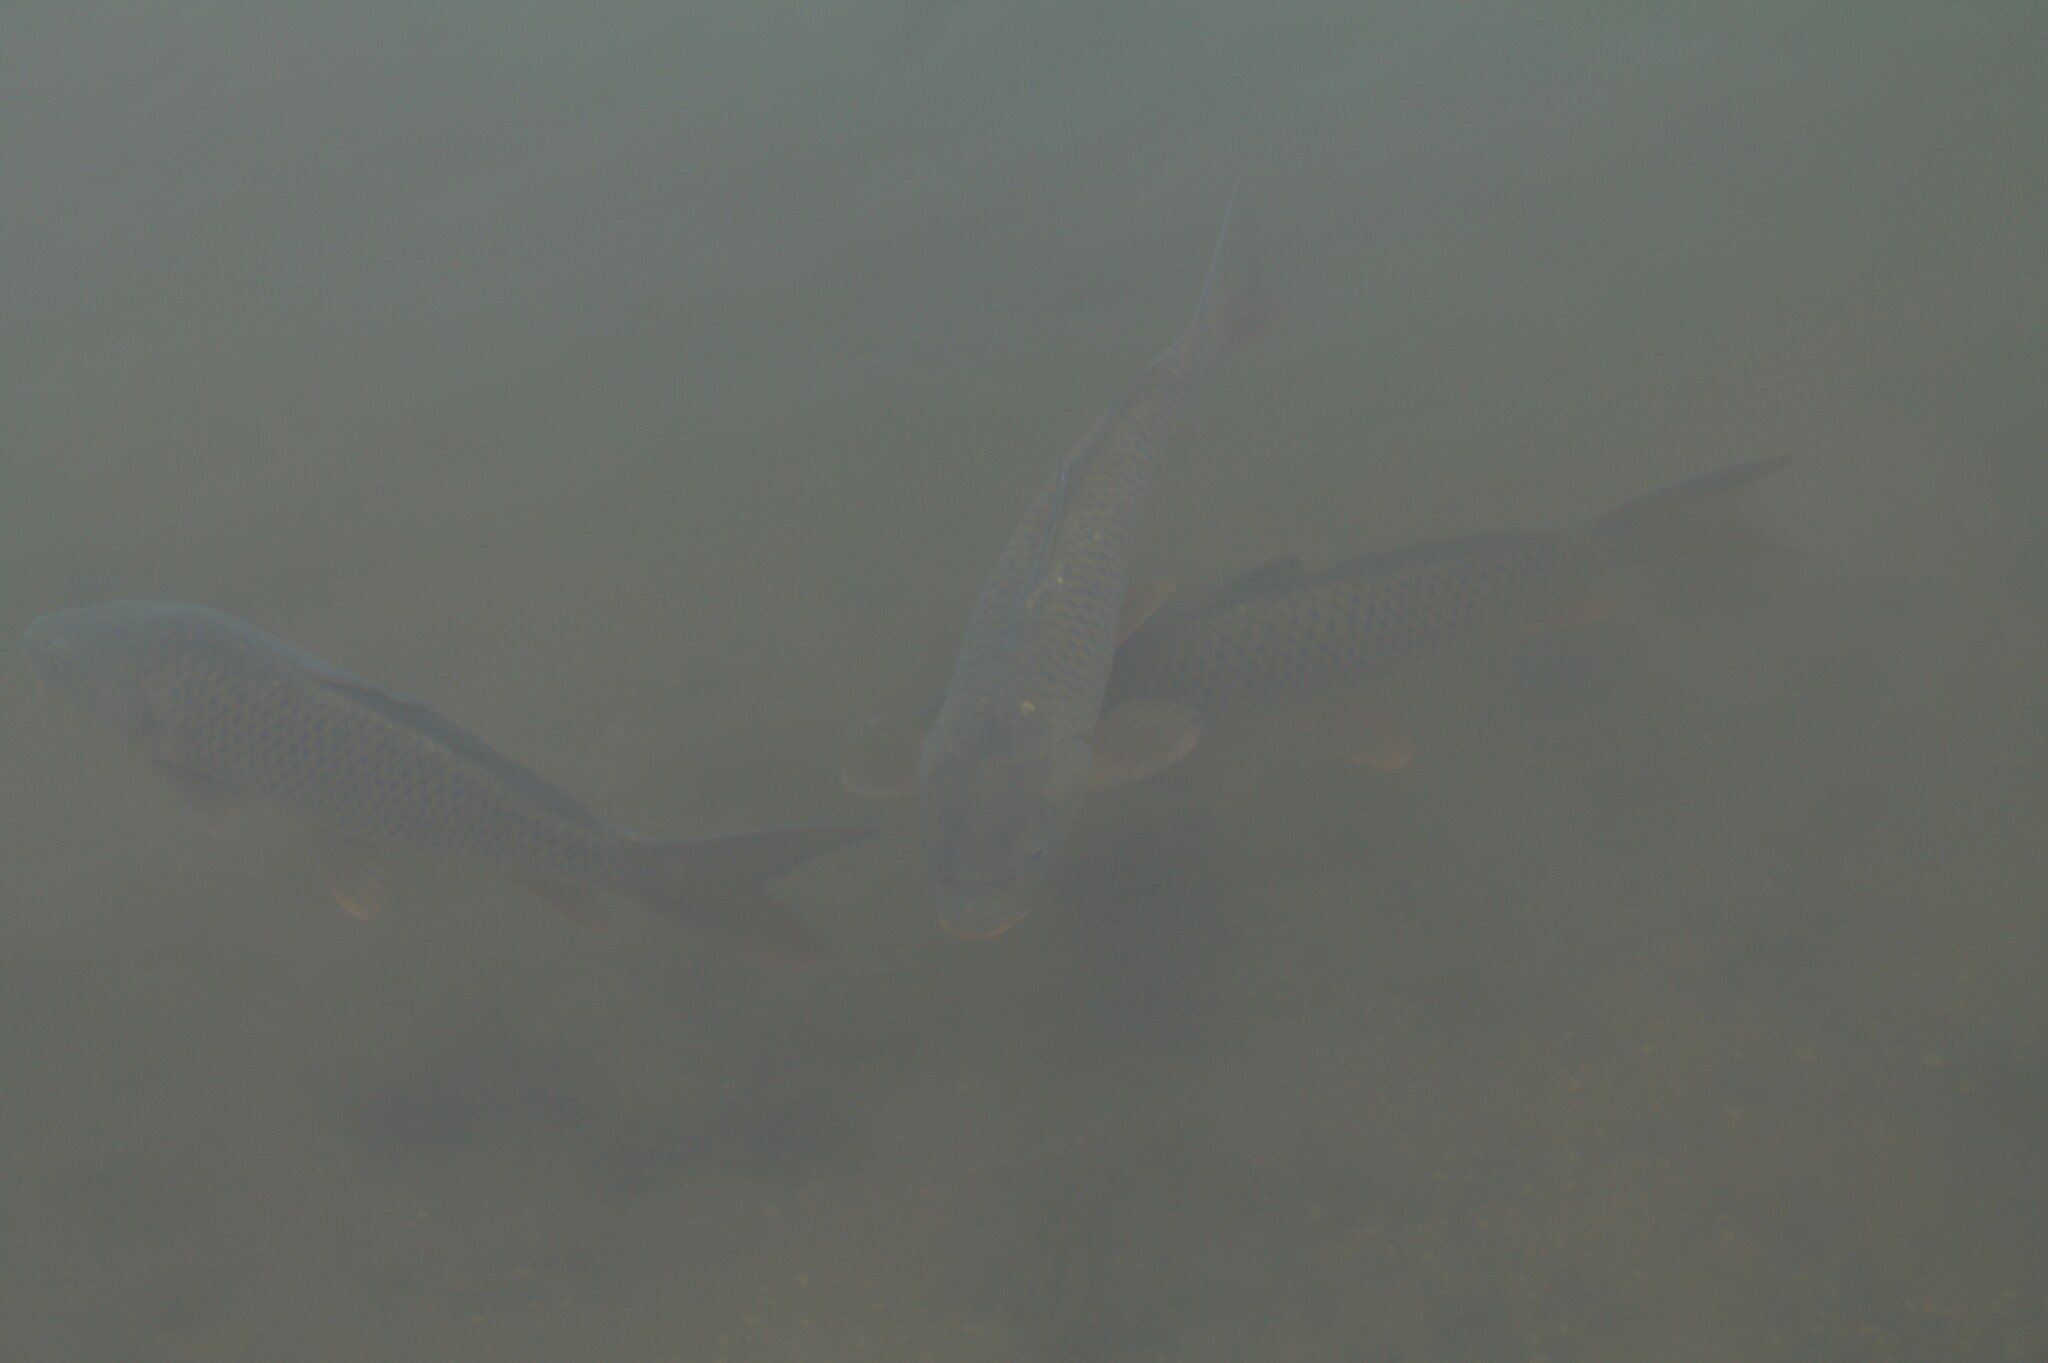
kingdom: Animalia
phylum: Chordata
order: Cypriniformes
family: Cyprinidae
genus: Cyprinus
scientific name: Cyprinus carpio
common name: Common carp
